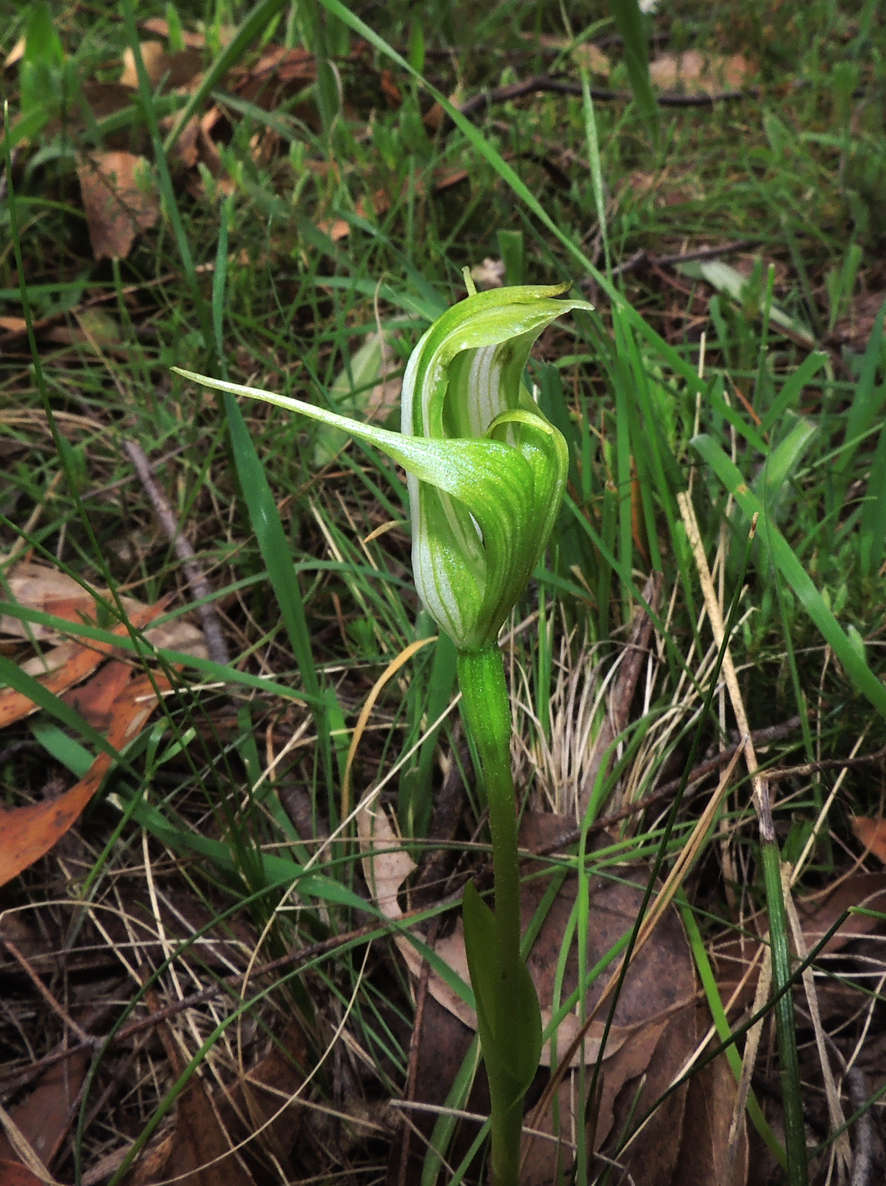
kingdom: Plantae
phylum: Tracheophyta
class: Liliopsida
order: Asparagales
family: Orchidaceae
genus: Pterostylis
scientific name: Pterostylis alpina
